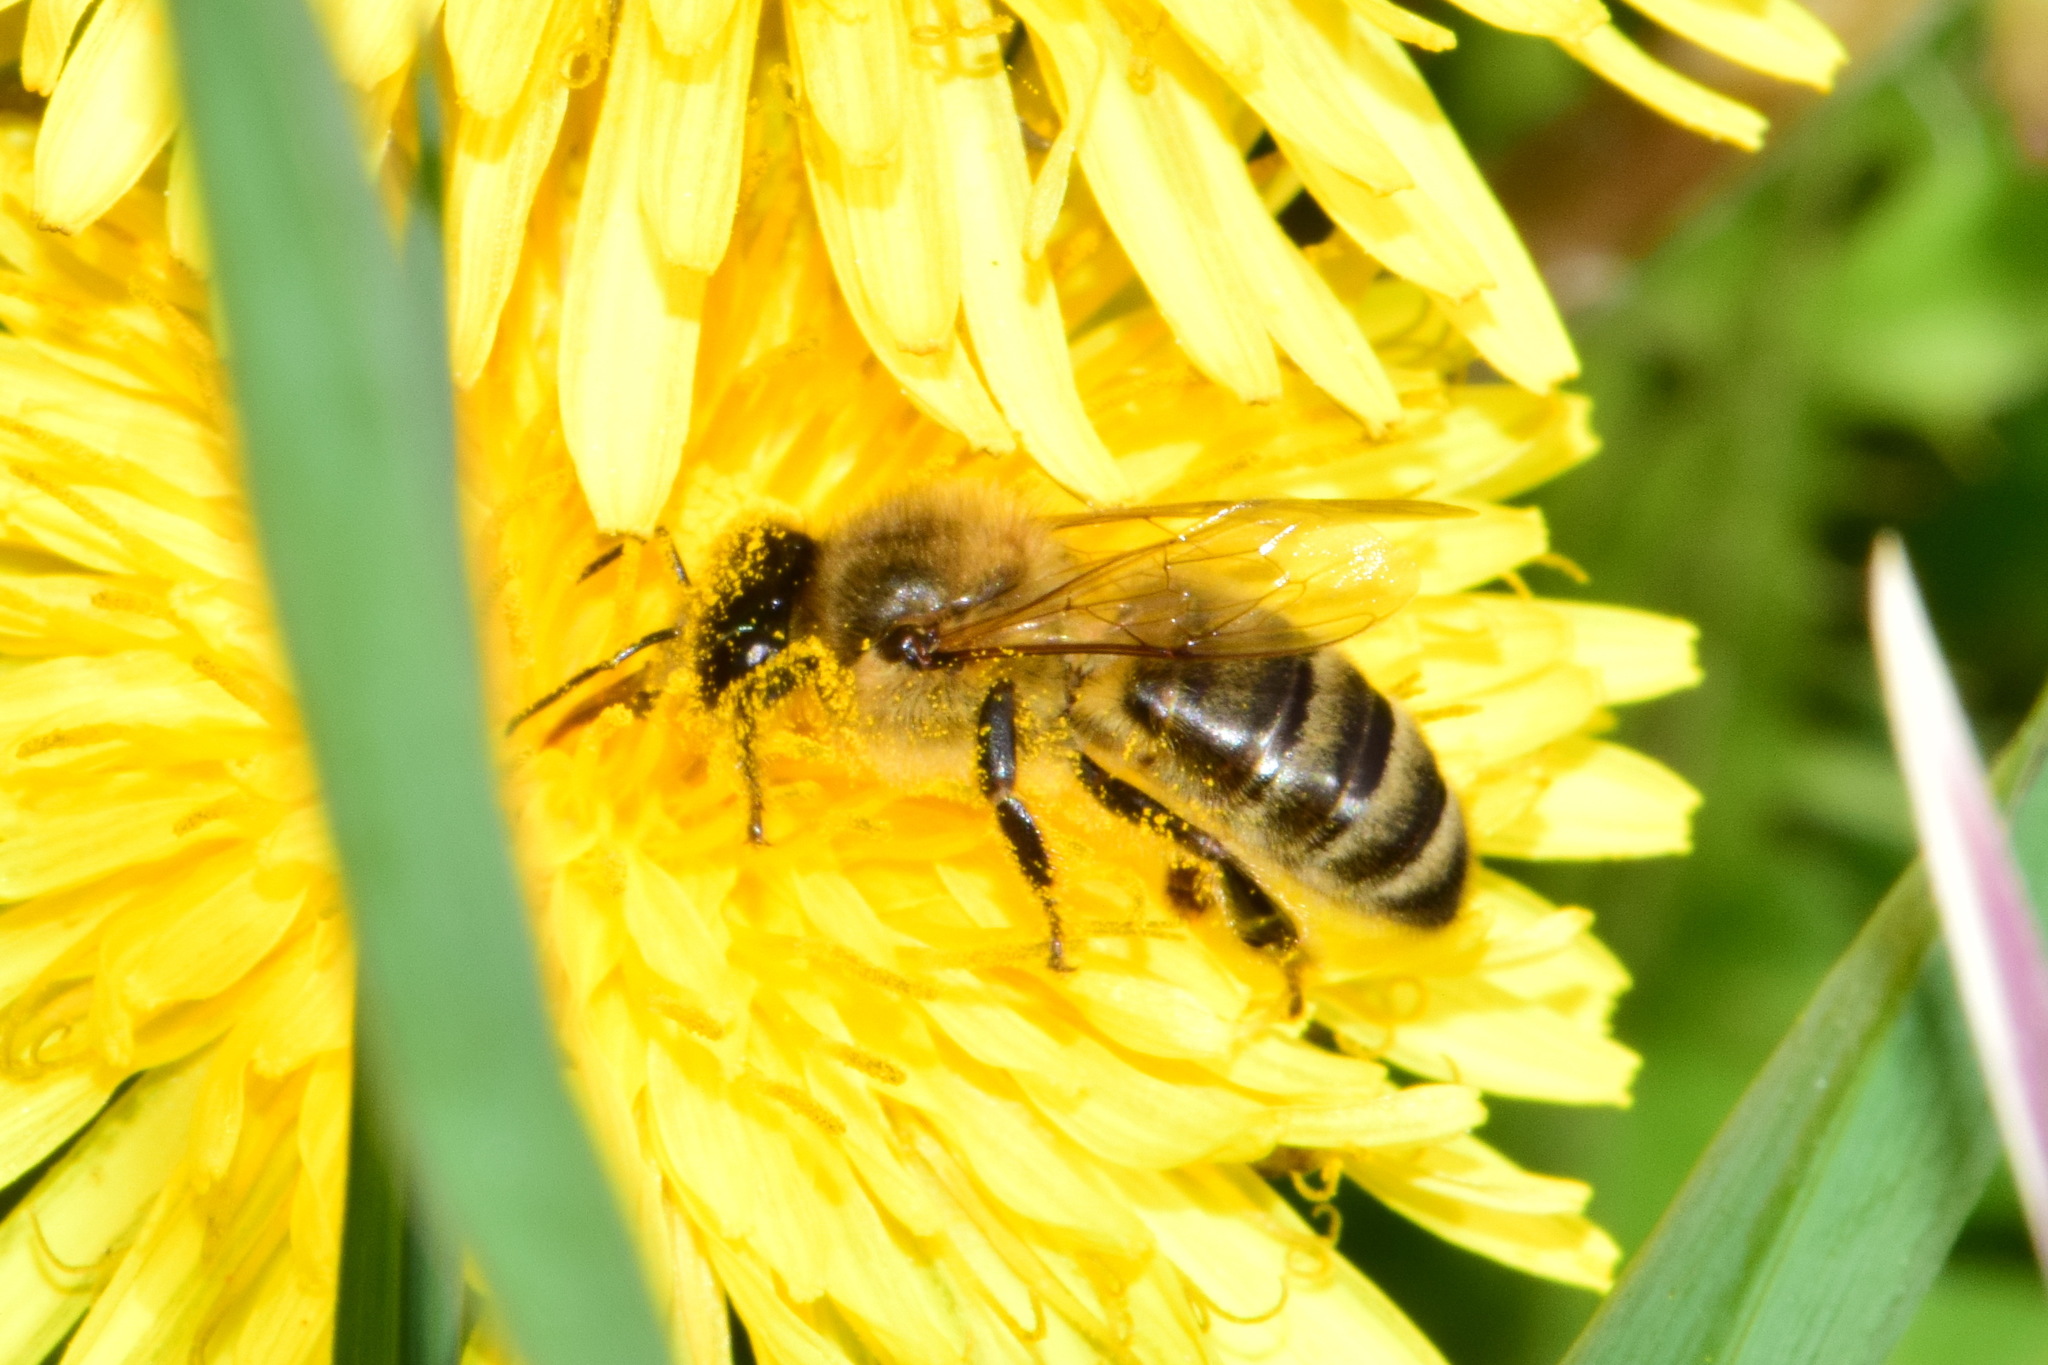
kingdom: Animalia
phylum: Arthropoda
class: Insecta
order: Hymenoptera
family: Apidae
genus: Apis
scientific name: Apis mellifera
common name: Honey bee
